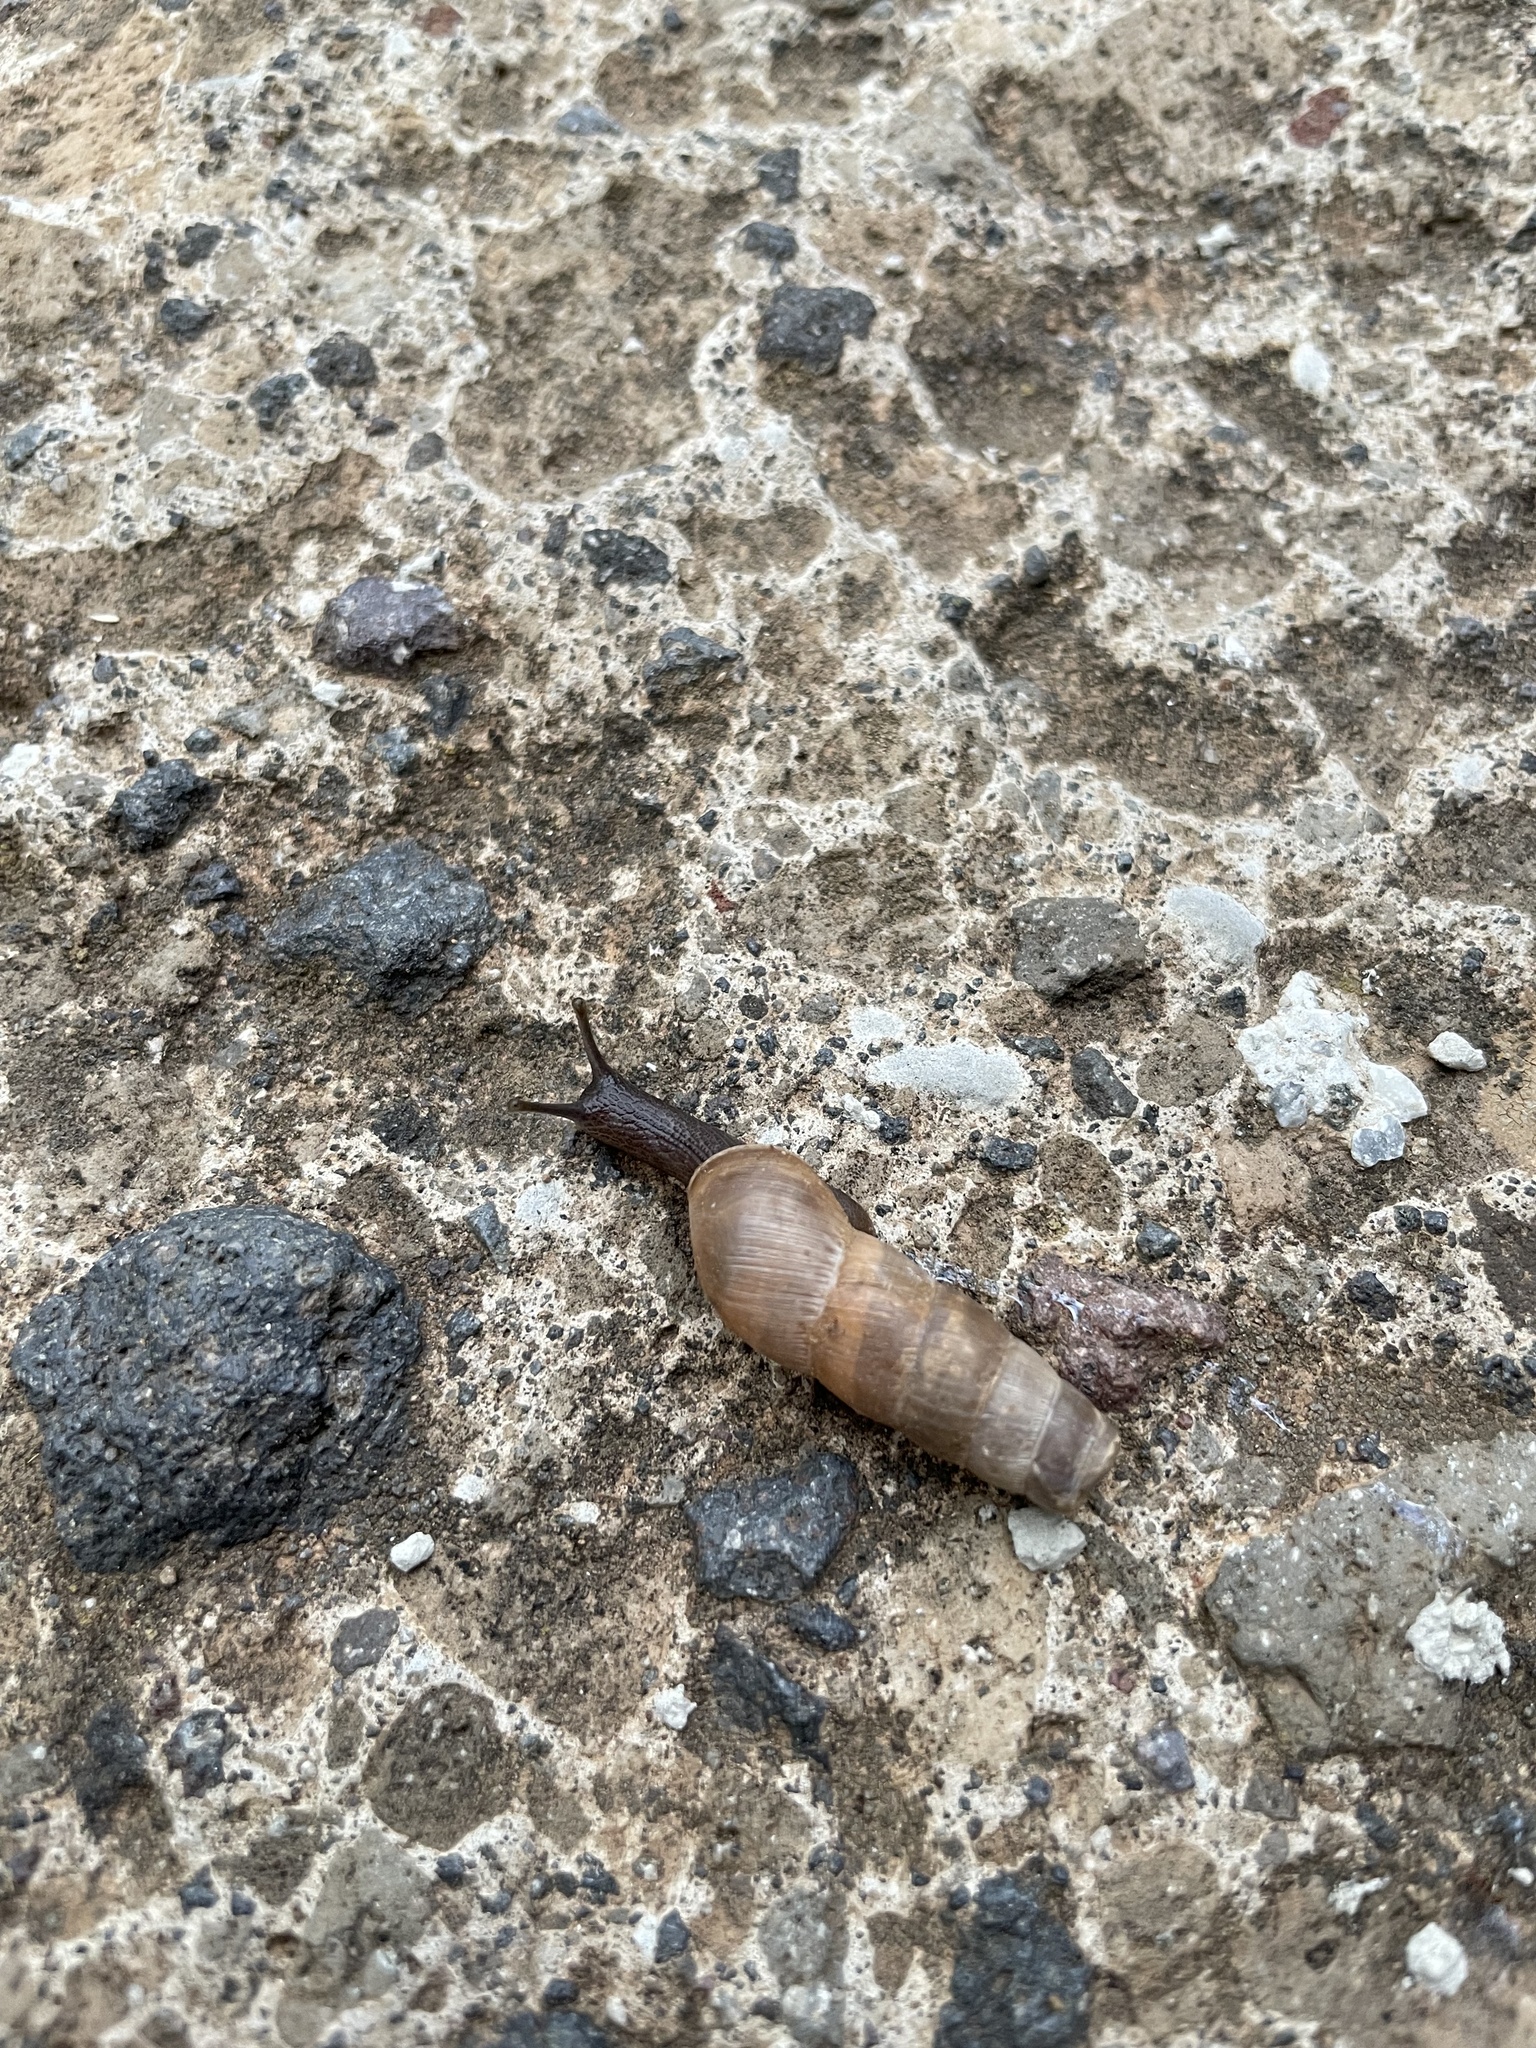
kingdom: Animalia
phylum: Mollusca
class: Gastropoda
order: Stylommatophora
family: Achatinidae
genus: Rumina
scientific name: Rumina decollata
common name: Decollate snail
